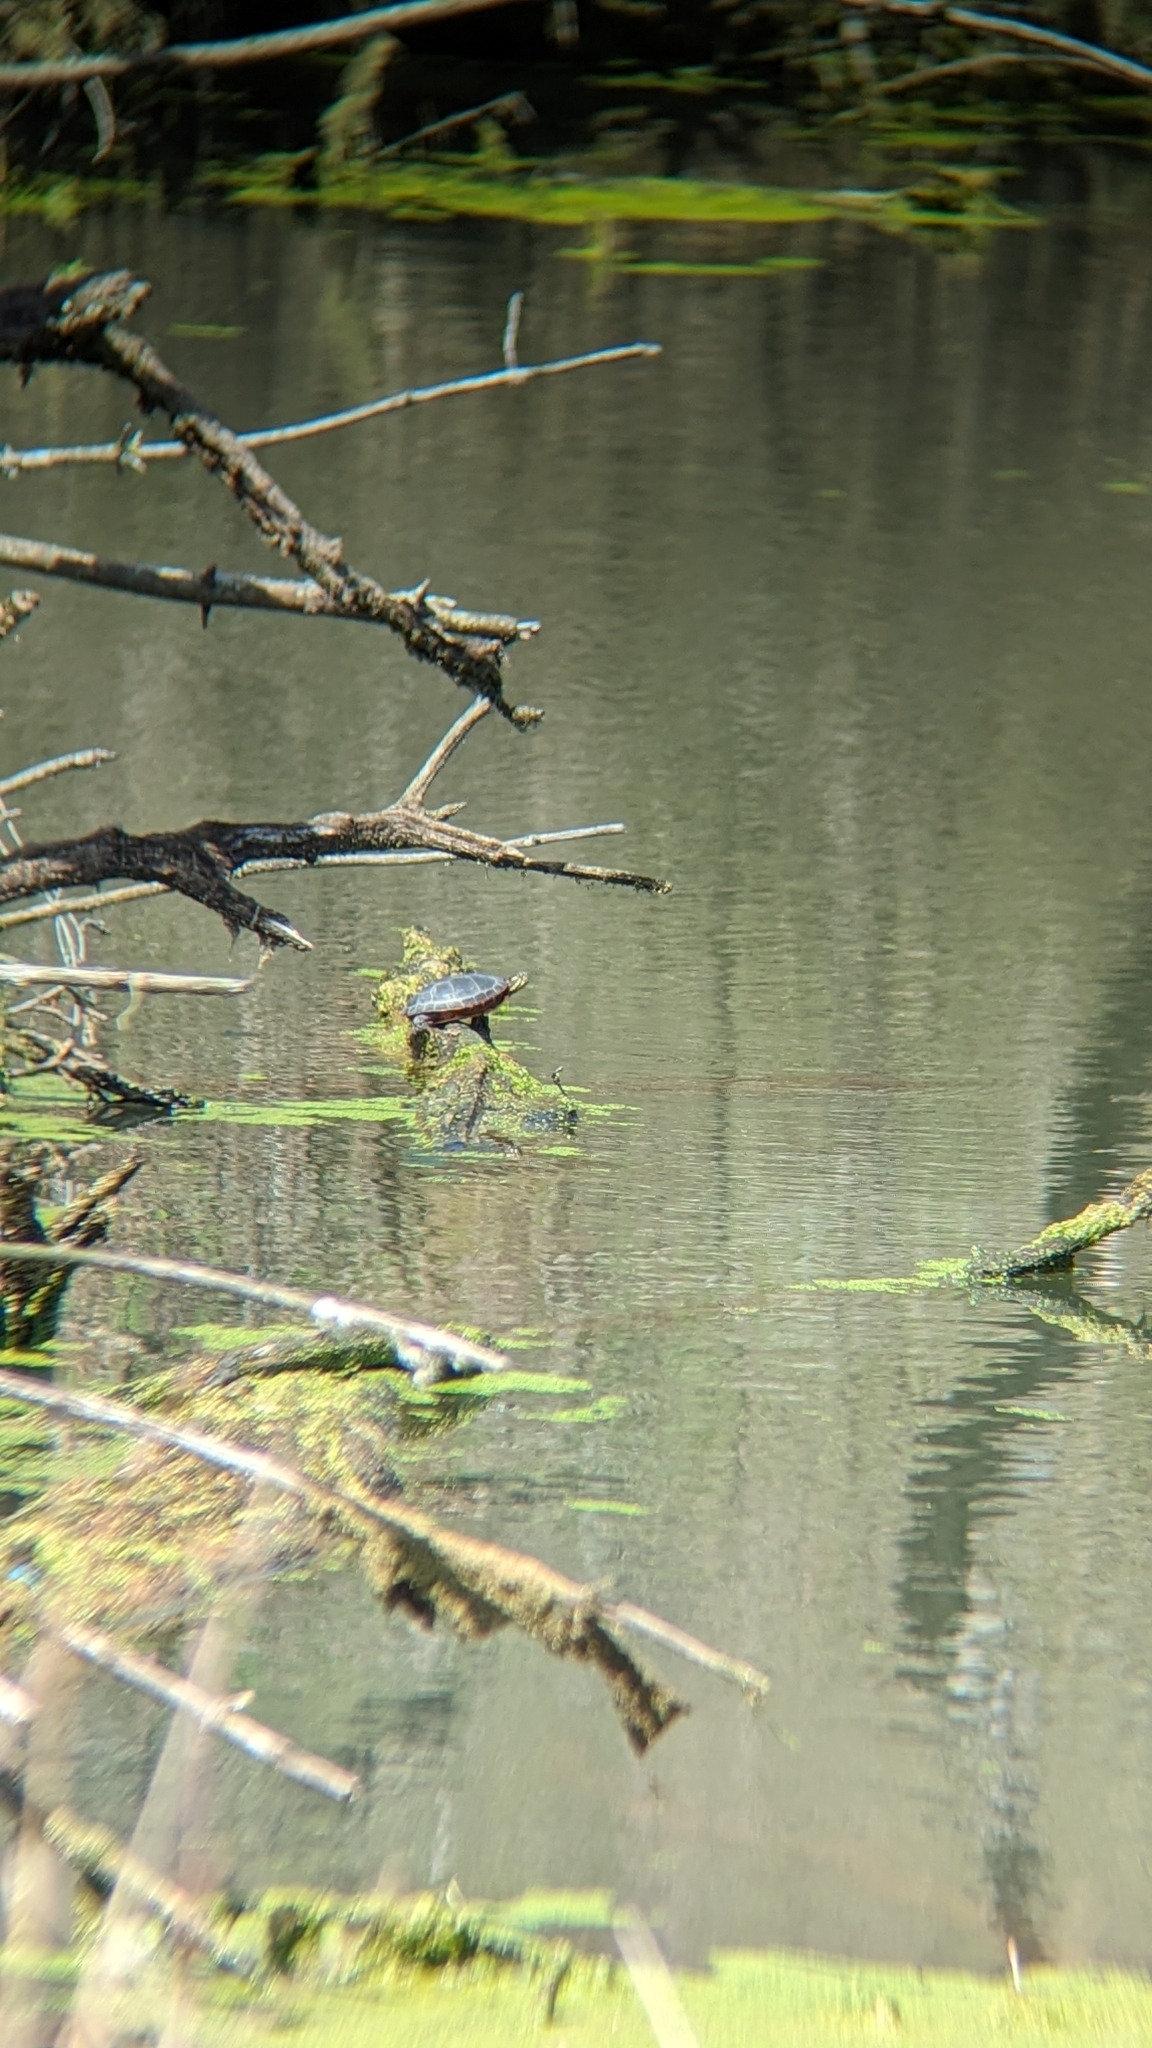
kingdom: Animalia
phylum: Chordata
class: Testudines
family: Emydidae
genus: Chrysemys
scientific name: Chrysemys picta
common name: Painted turtle
